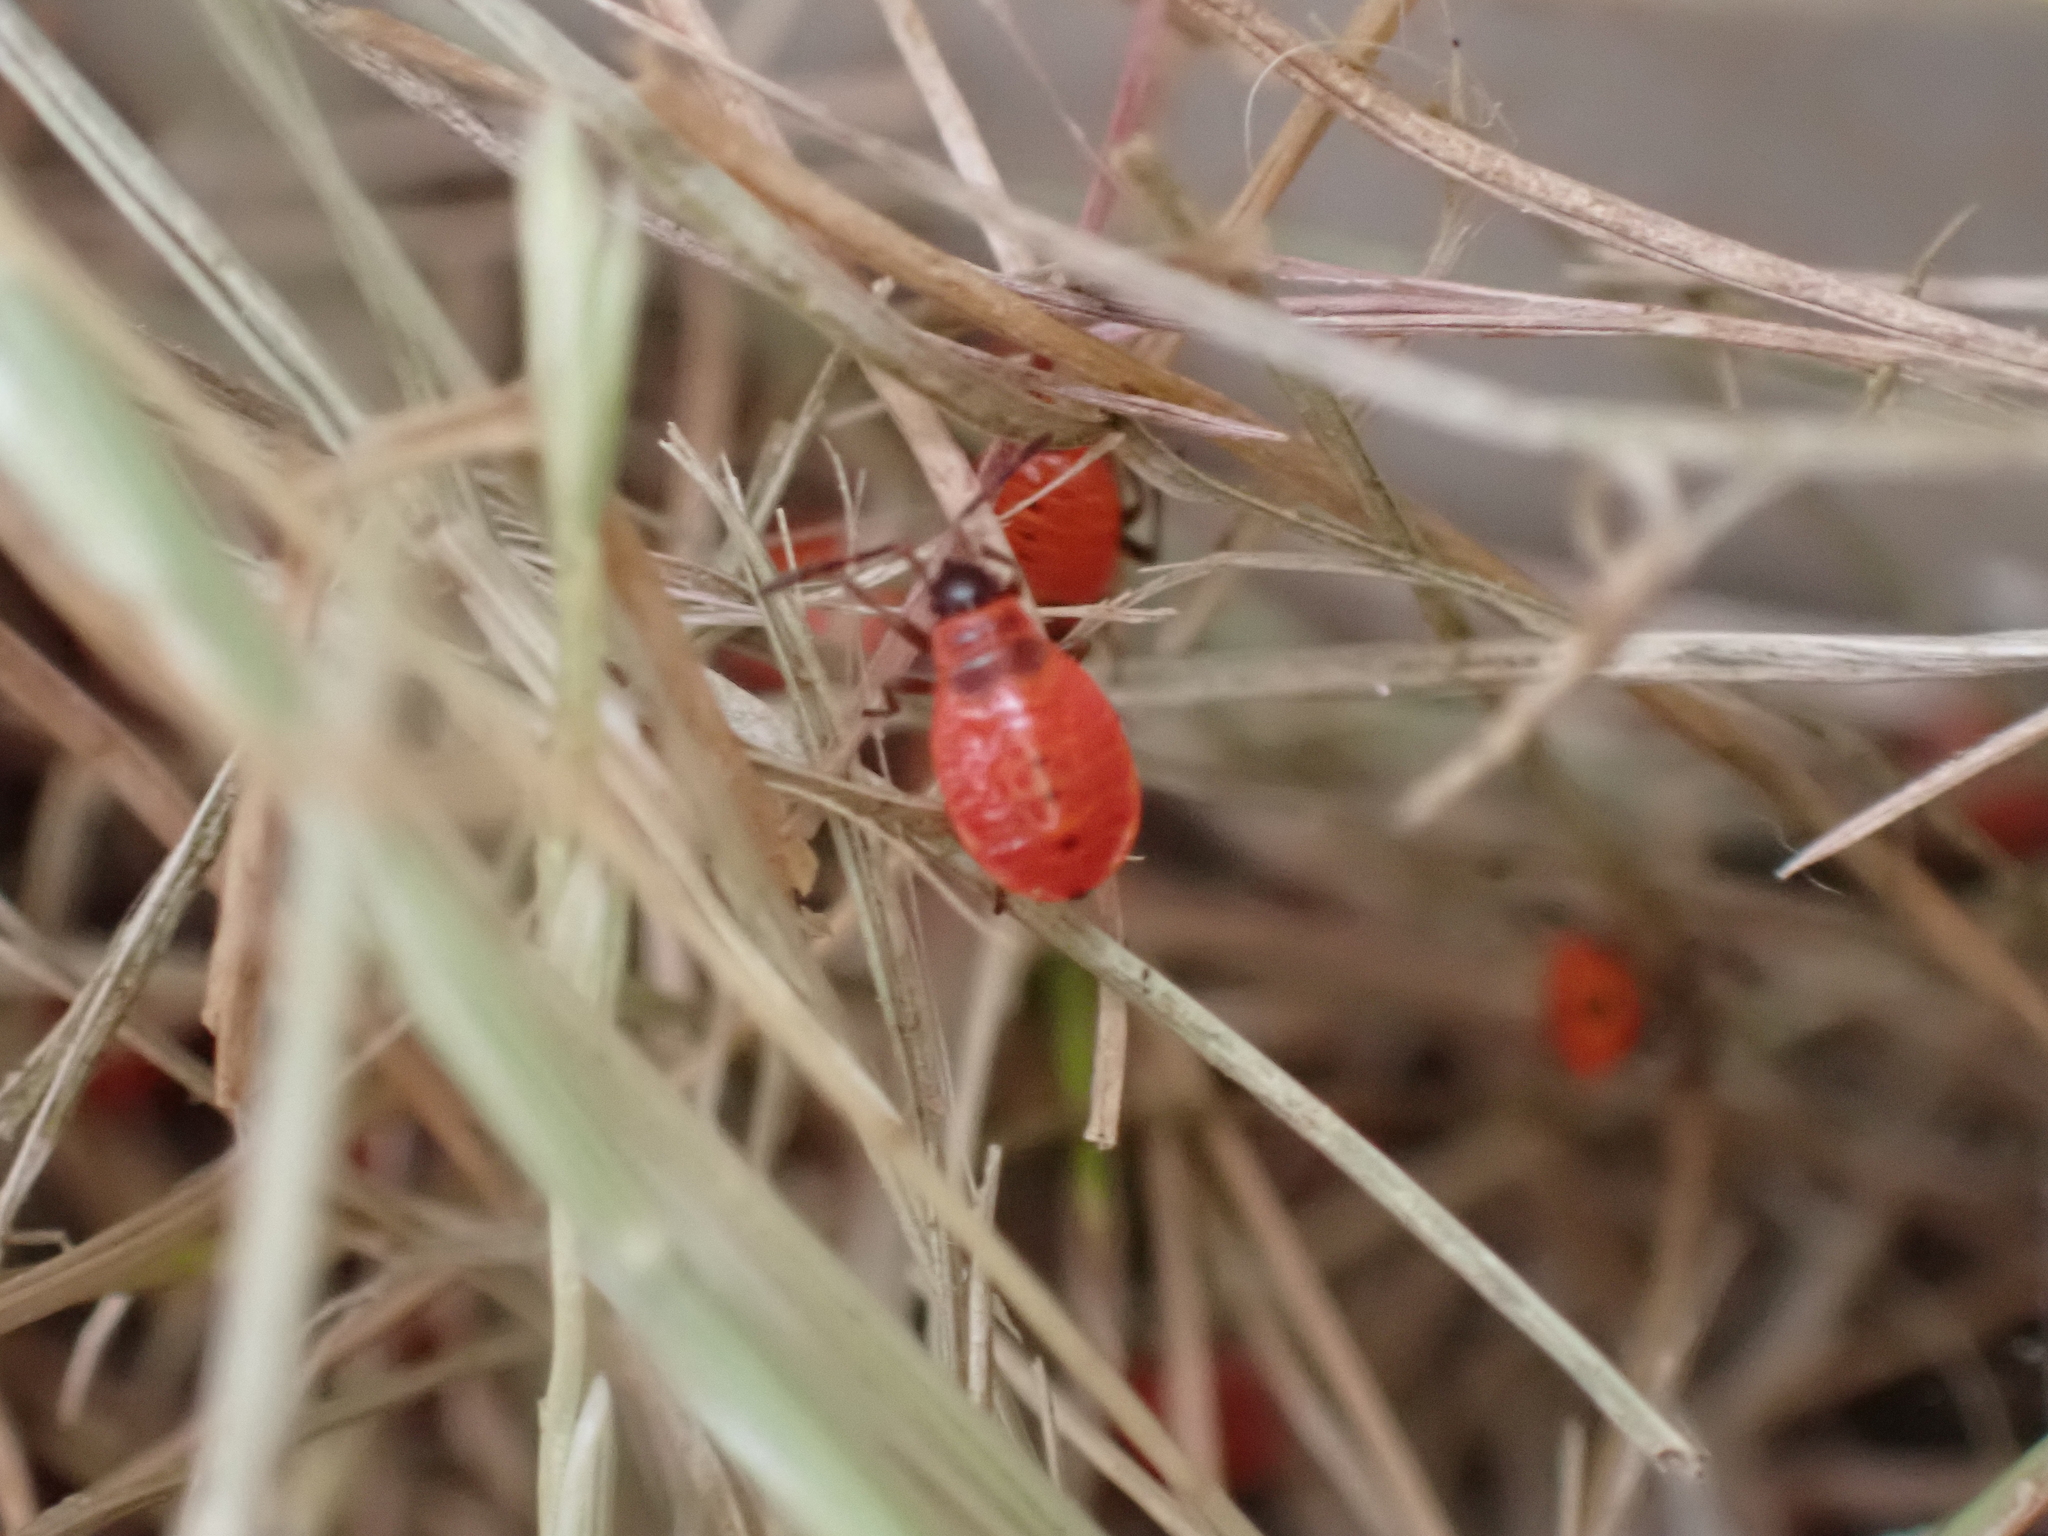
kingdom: Animalia
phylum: Arthropoda
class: Insecta
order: Hemiptera
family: Pyrrhocoridae
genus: Pyrrhocoris
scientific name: Pyrrhocoris apterus
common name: Firebug
